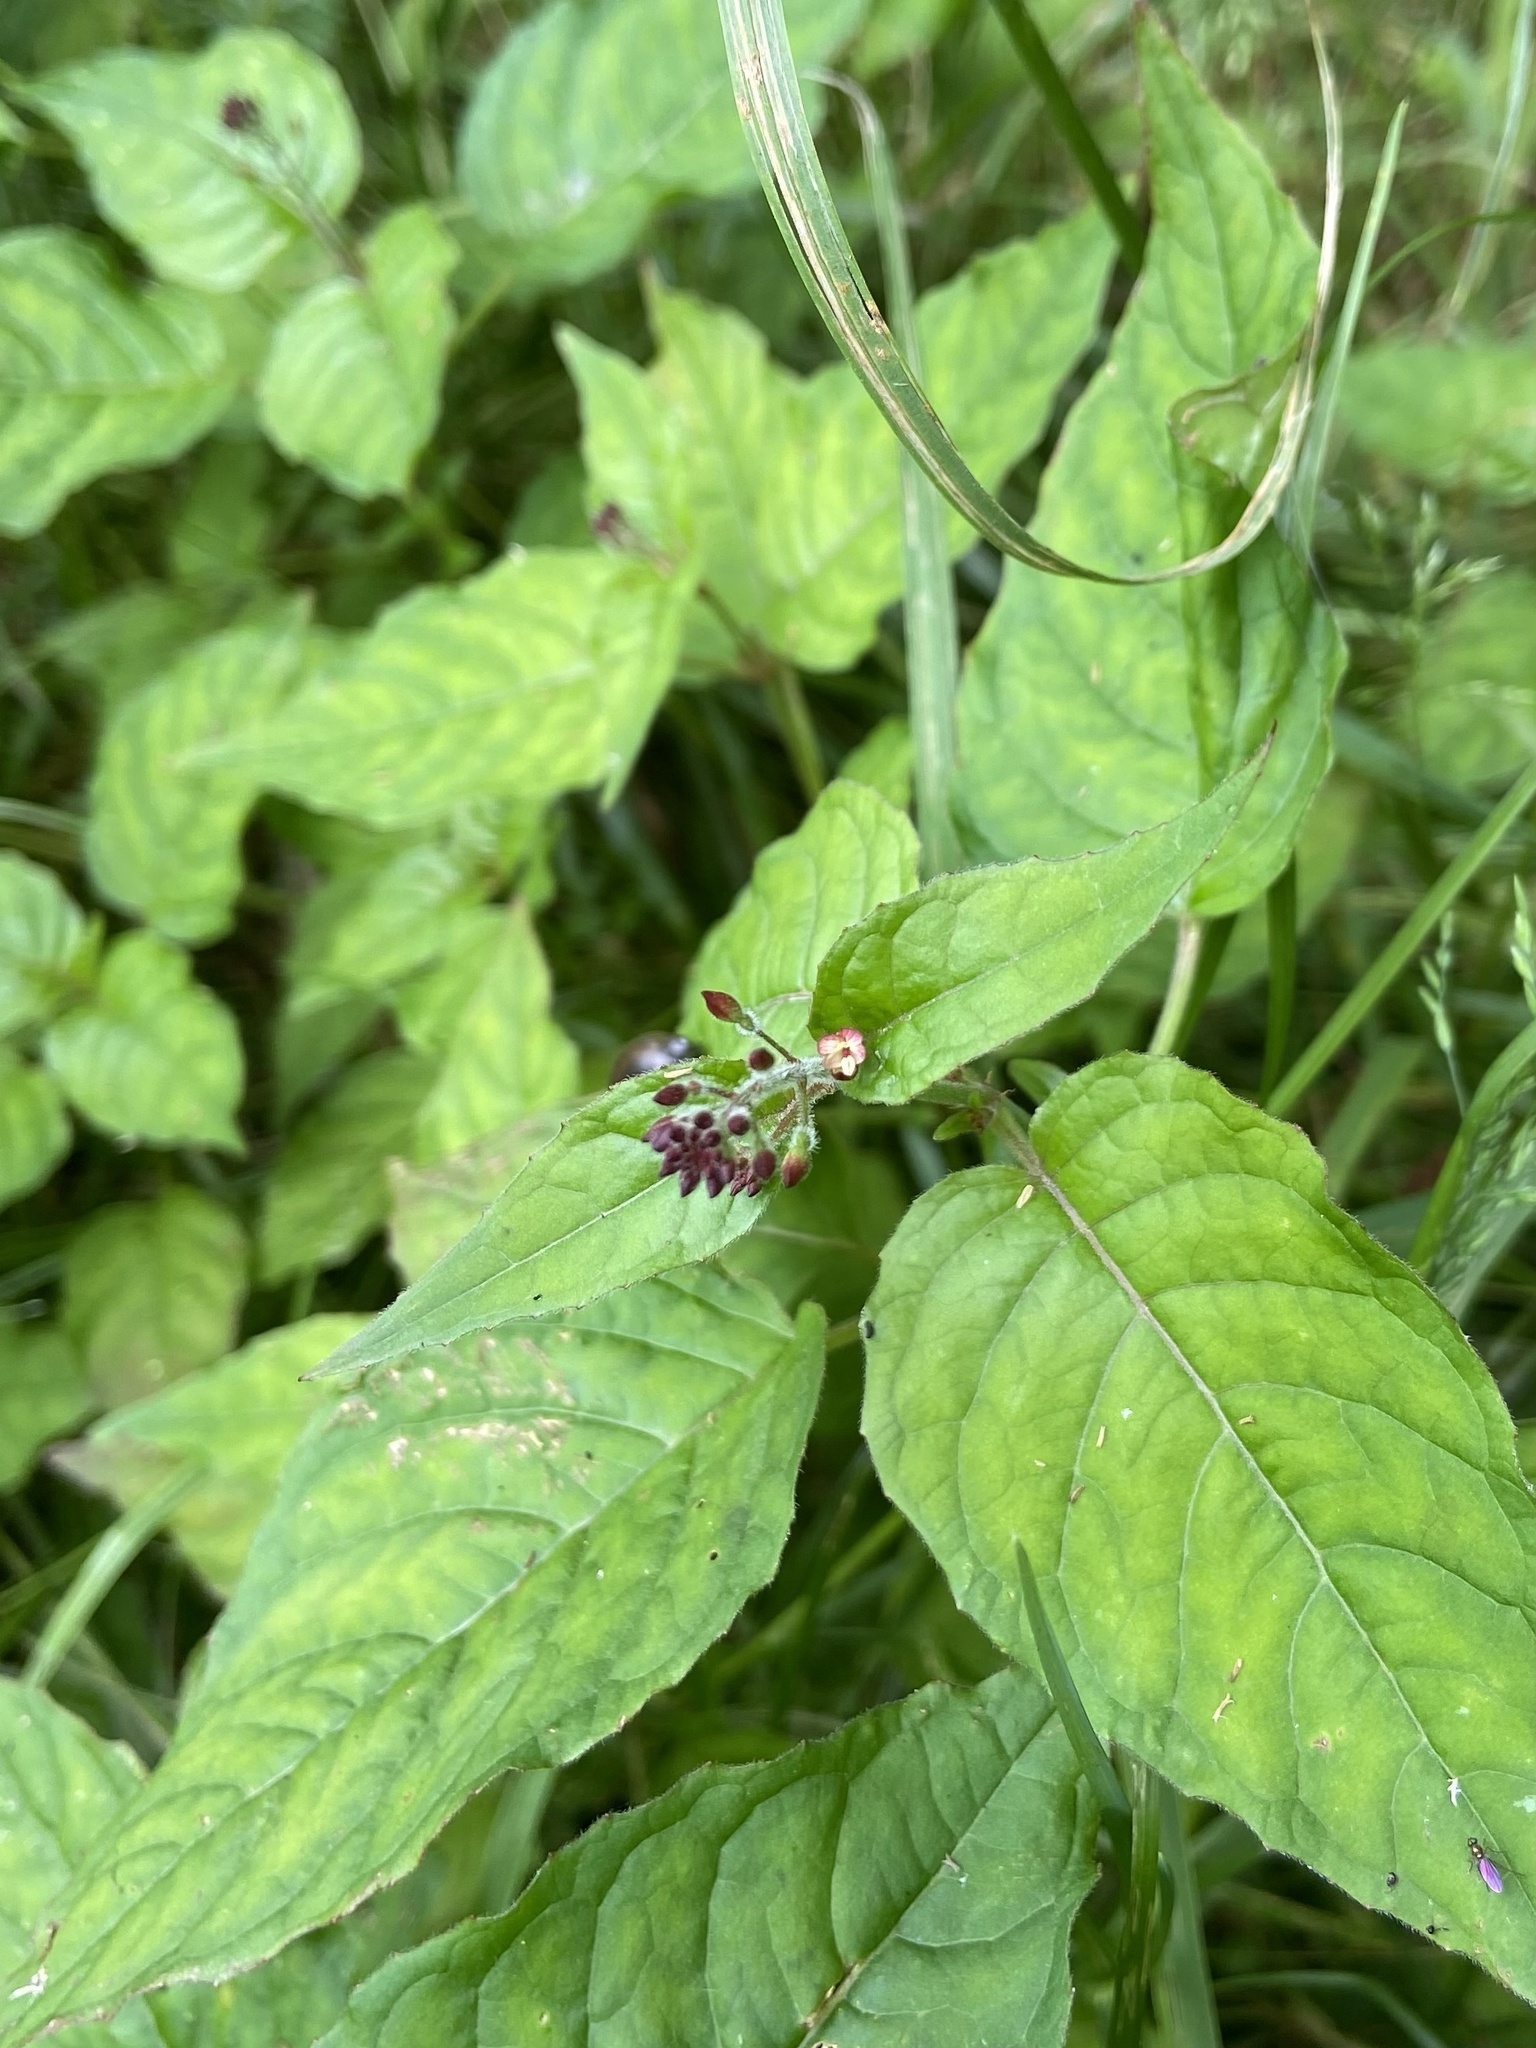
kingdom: Plantae
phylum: Tracheophyta
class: Magnoliopsida
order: Myrtales
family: Onagraceae
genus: Circaea
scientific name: Circaea lutetiana
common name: Enchanter's-nightshade
